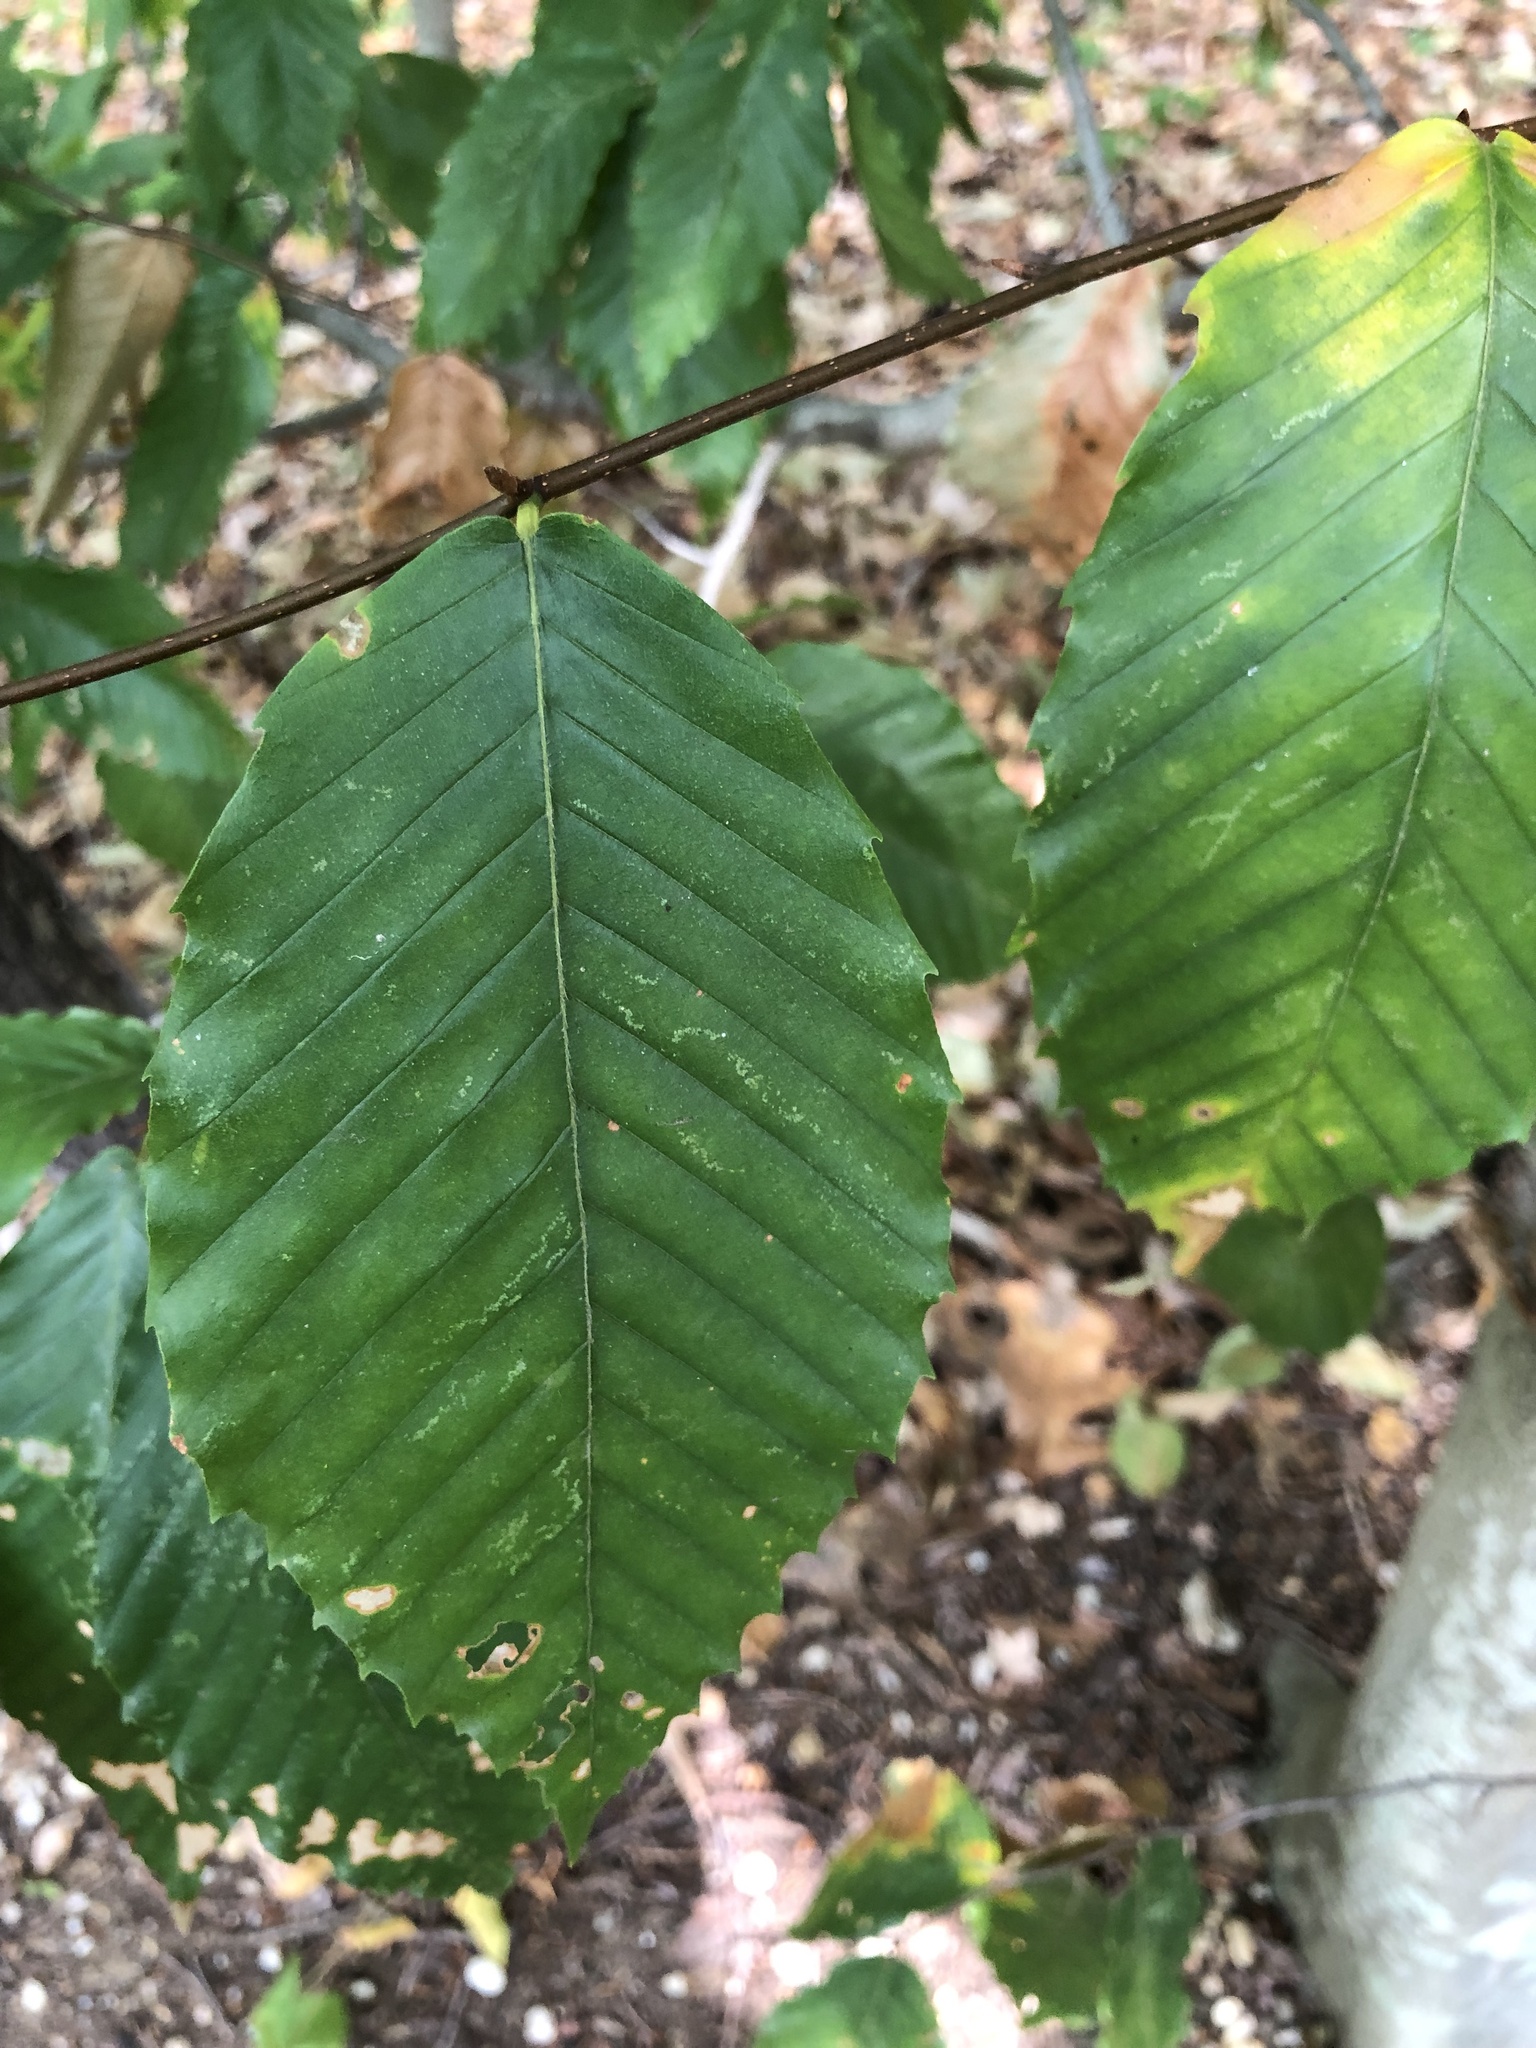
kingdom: Plantae
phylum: Tracheophyta
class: Magnoliopsida
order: Fagales
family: Fagaceae
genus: Fagus
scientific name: Fagus grandifolia
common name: American beech
